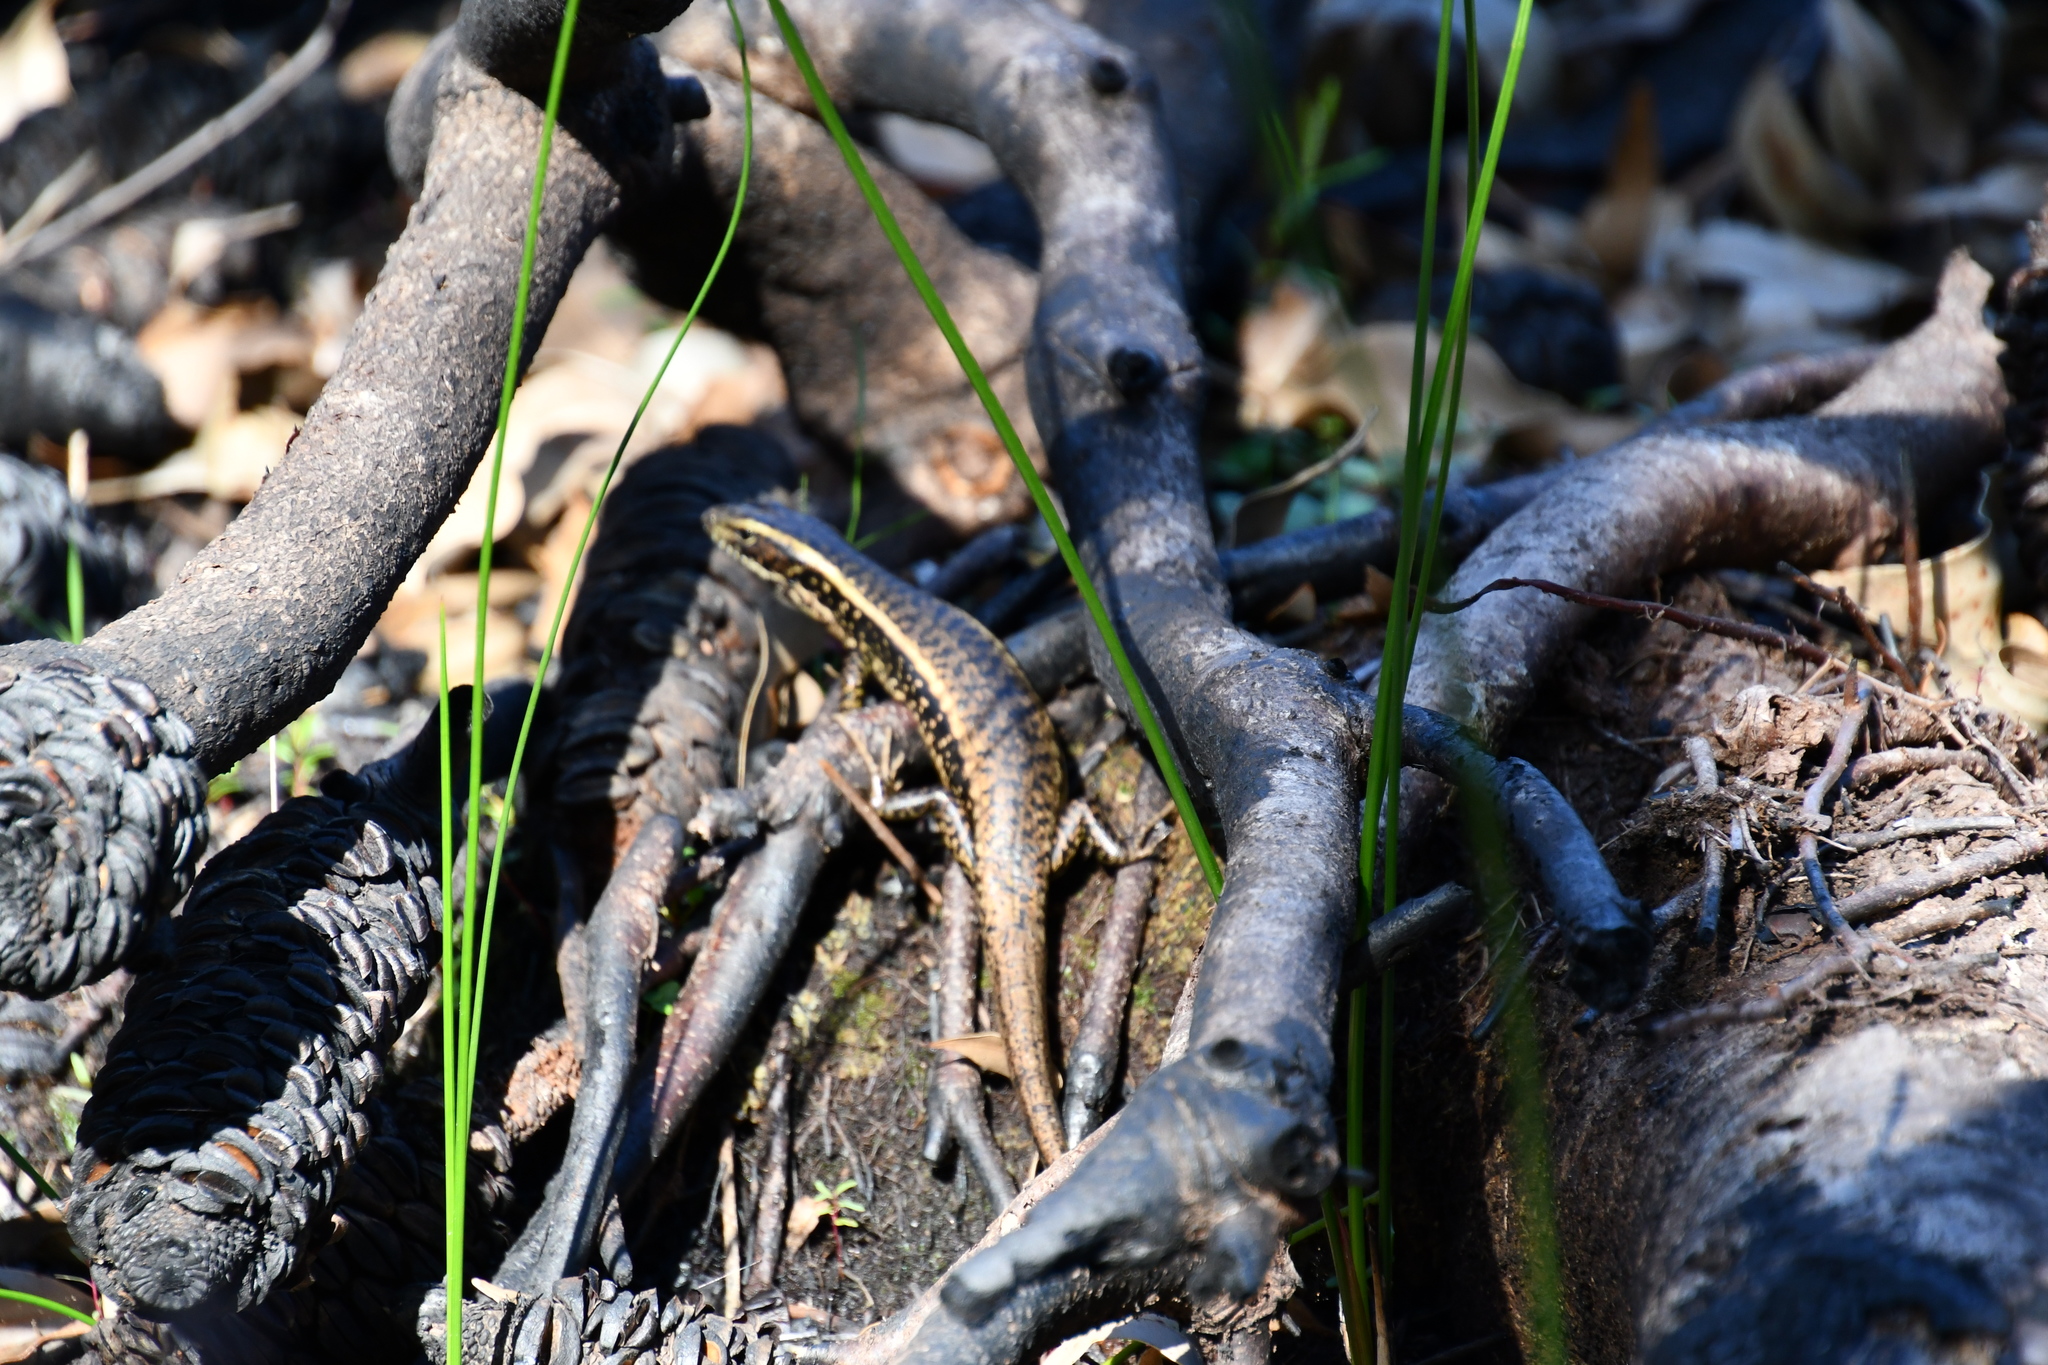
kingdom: Animalia
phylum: Chordata
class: Squamata
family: Scincidae
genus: Eulamprus
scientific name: Eulamprus quoyii
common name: Eastern water skink
